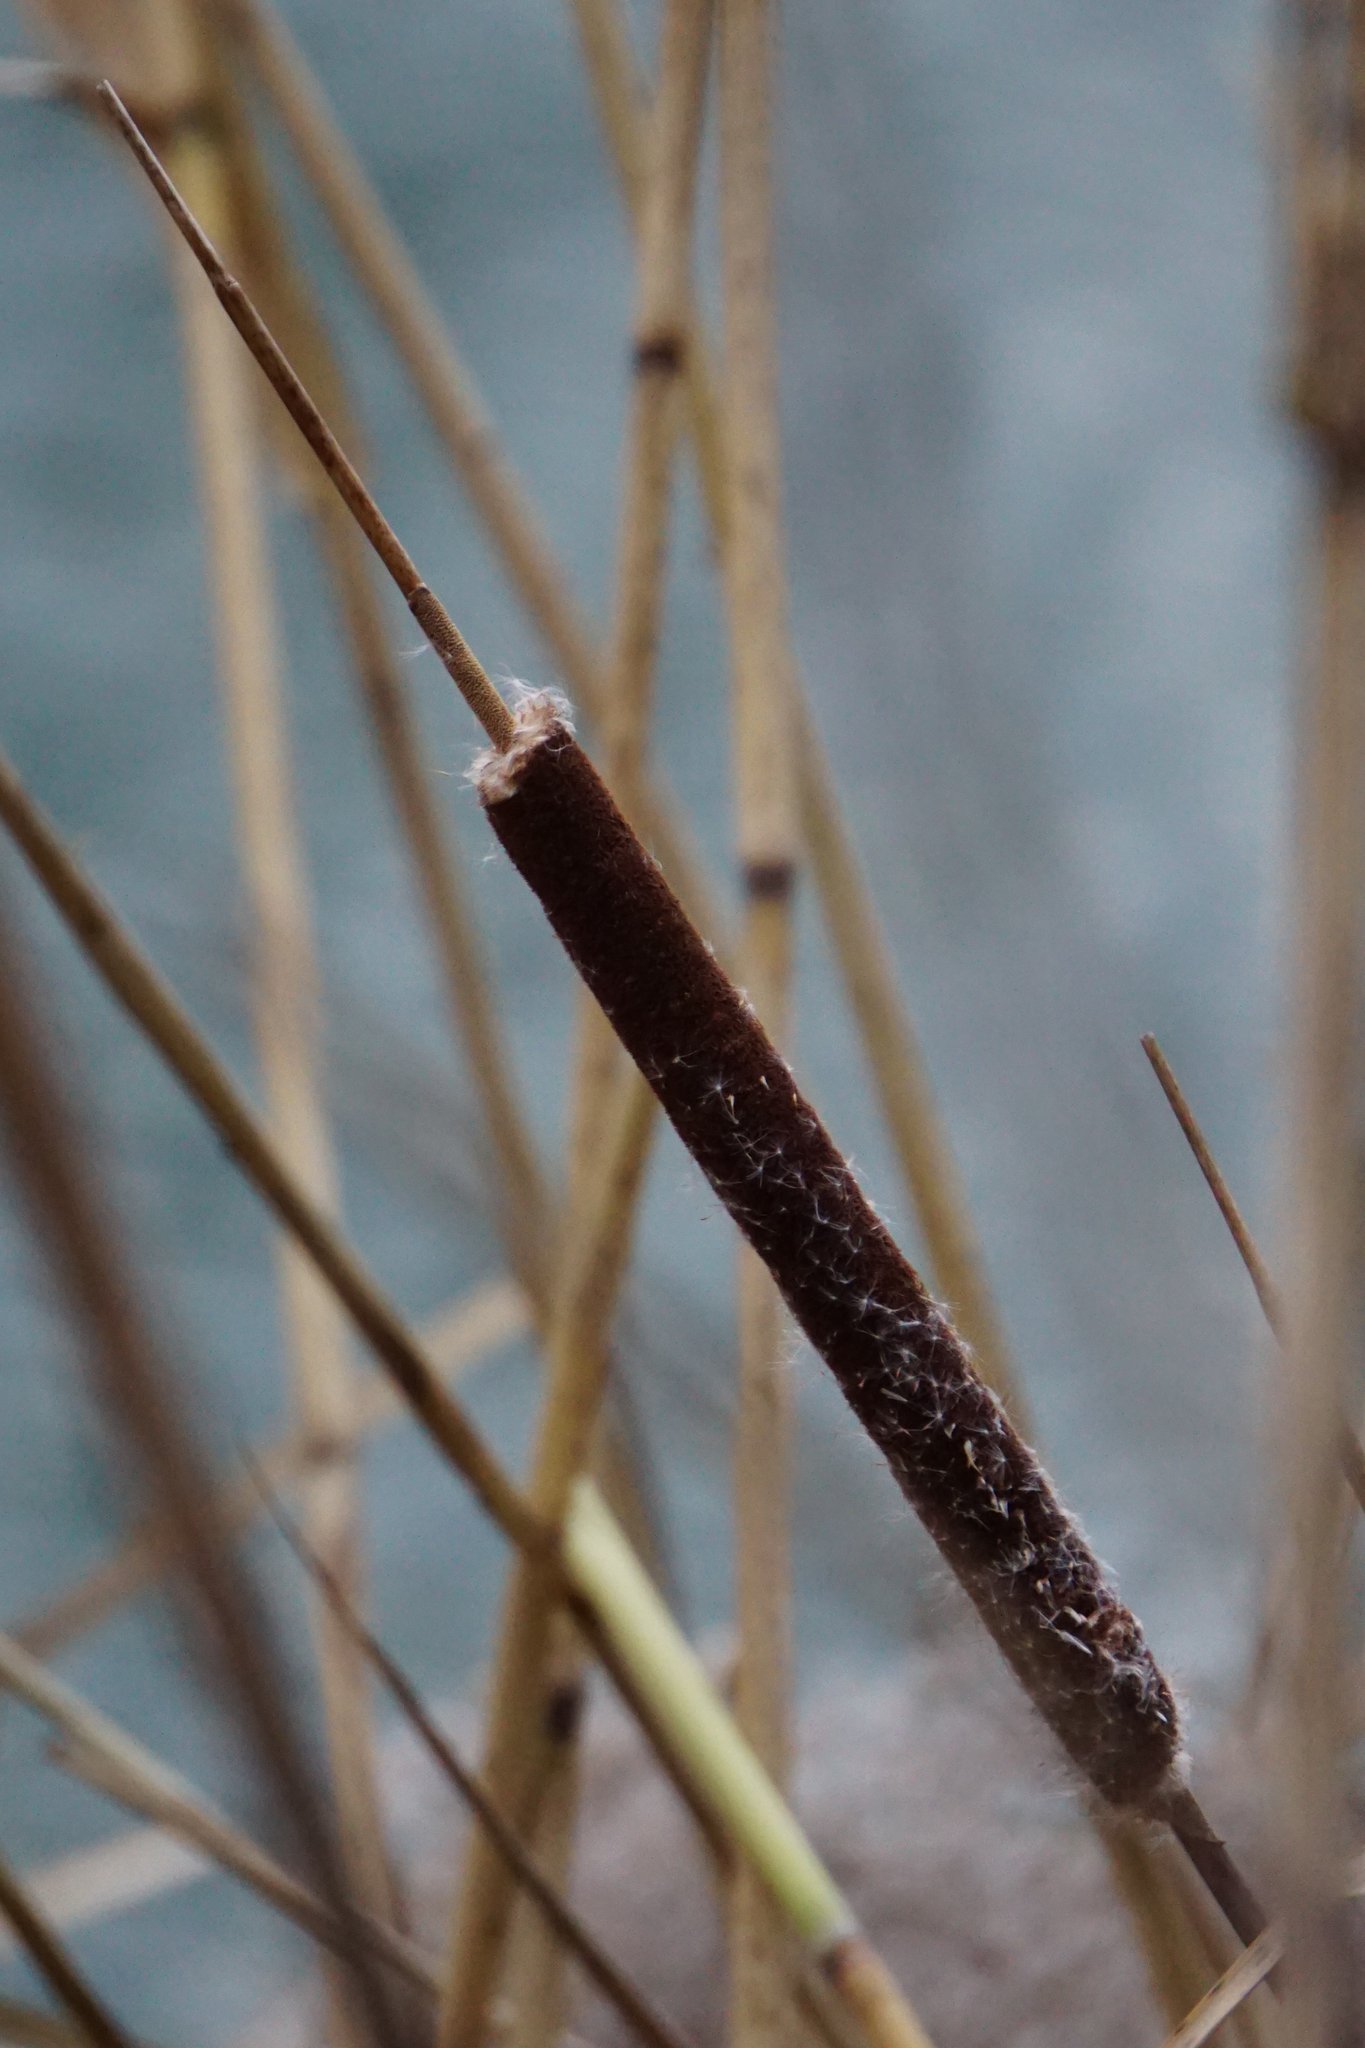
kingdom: Plantae
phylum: Tracheophyta
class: Liliopsida
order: Poales
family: Typhaceae
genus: Typha
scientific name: Typha angustifolia
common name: Lesser bulrush
